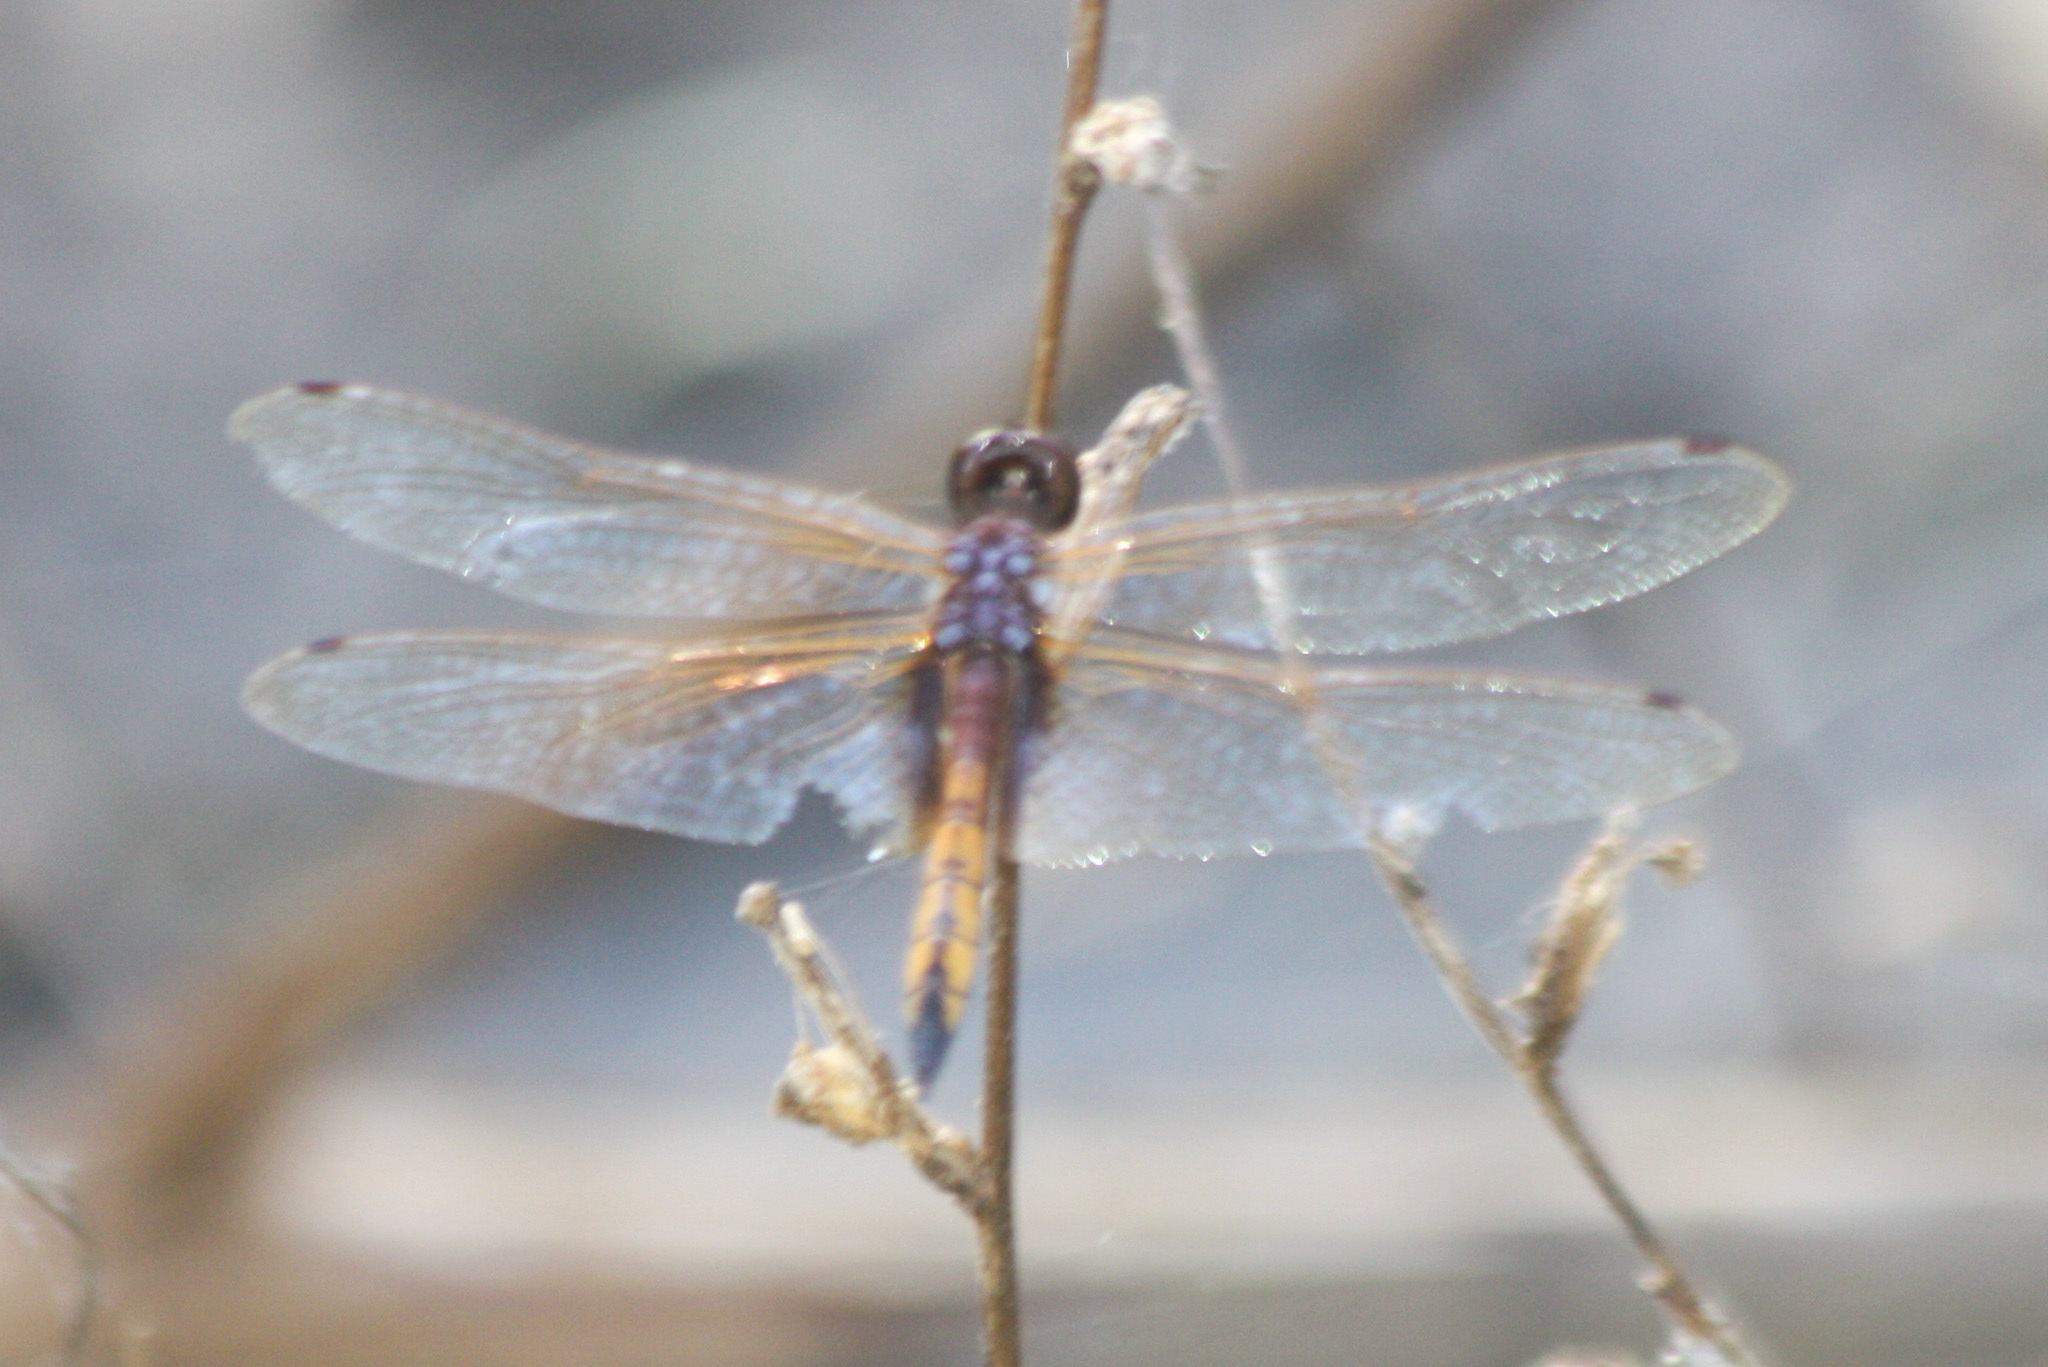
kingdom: Animalia
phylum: Arthropoda
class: Insecta
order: Odonata
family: Libellulidae
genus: Miathyria
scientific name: Miathyria marcella
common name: Hyacinth glider
